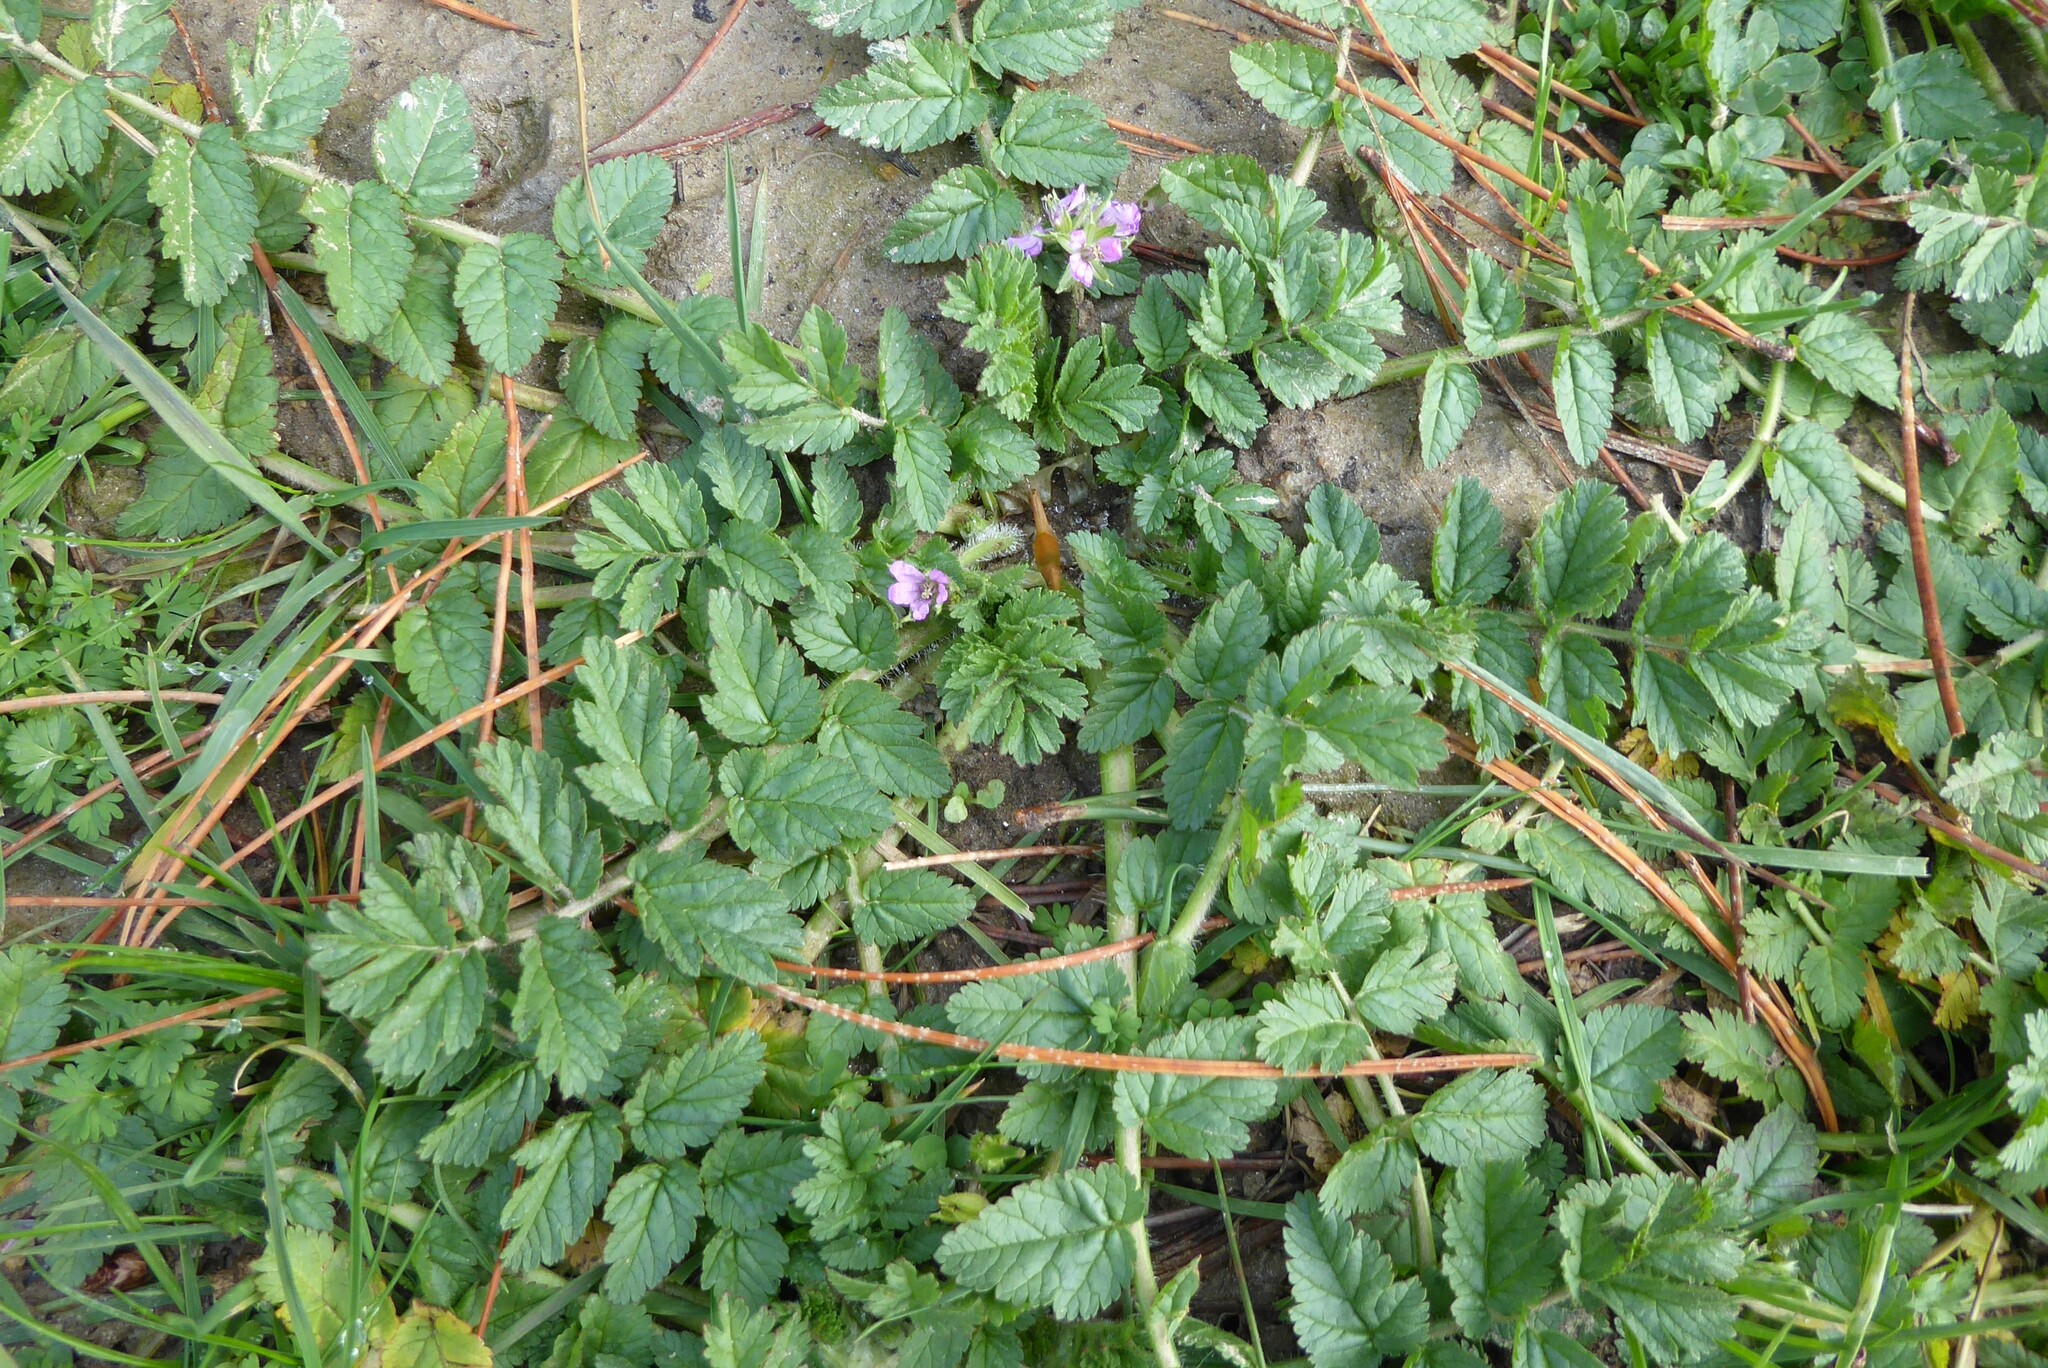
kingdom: Plantae
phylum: Tracheophyta
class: Magnoliopsida
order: Geraniales
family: Geraniaceae
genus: Erodium
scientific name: Erodium moschatum
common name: Musk stork's-bill
